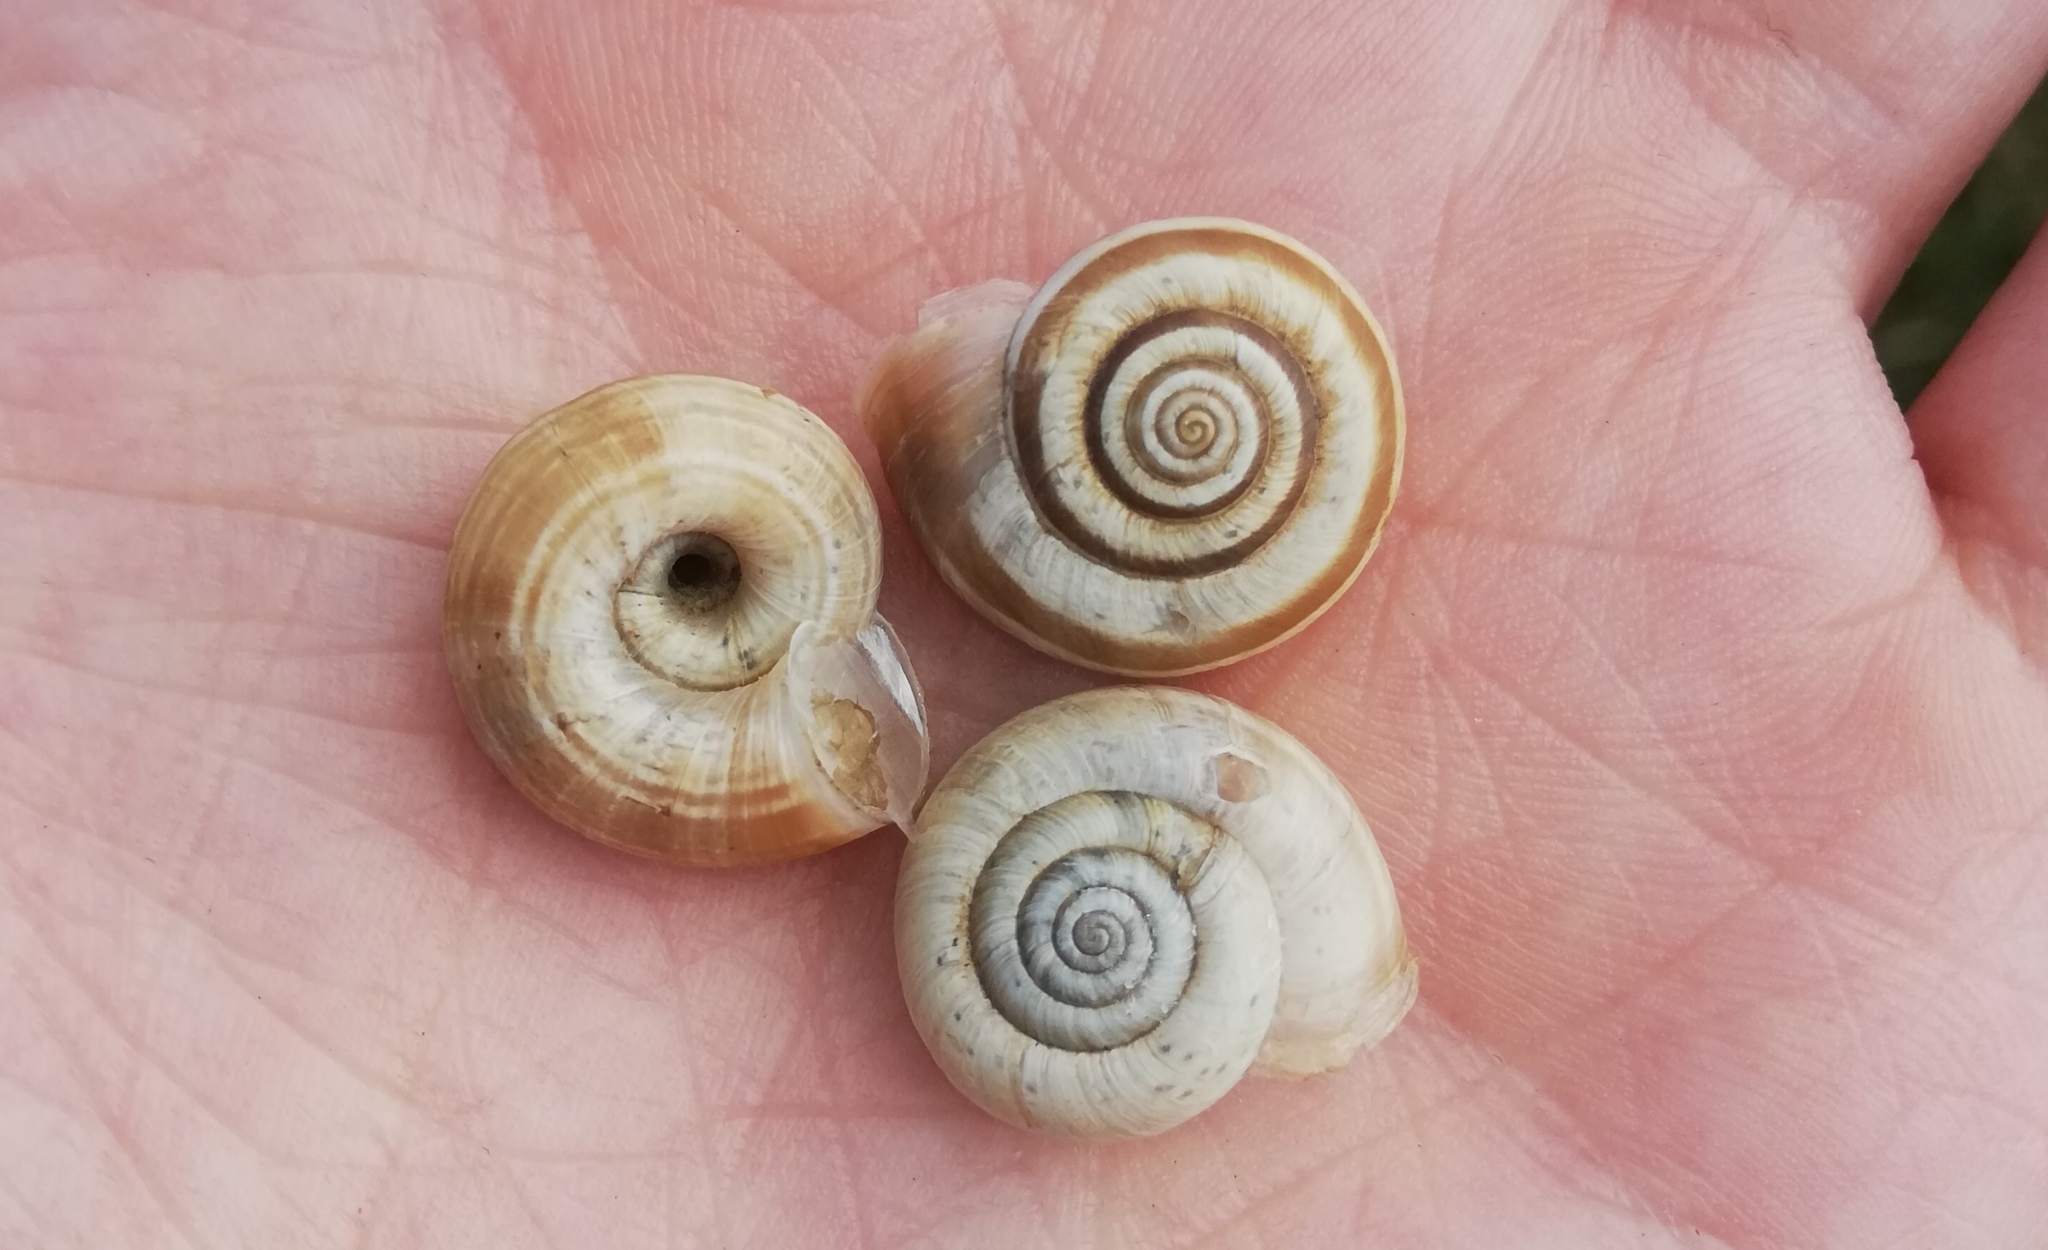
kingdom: Animalia
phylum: Mollusca
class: Gastropoda
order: Stylommatophora
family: Geomitridae
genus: Helicella
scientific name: Helicella itala
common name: Heath snail
